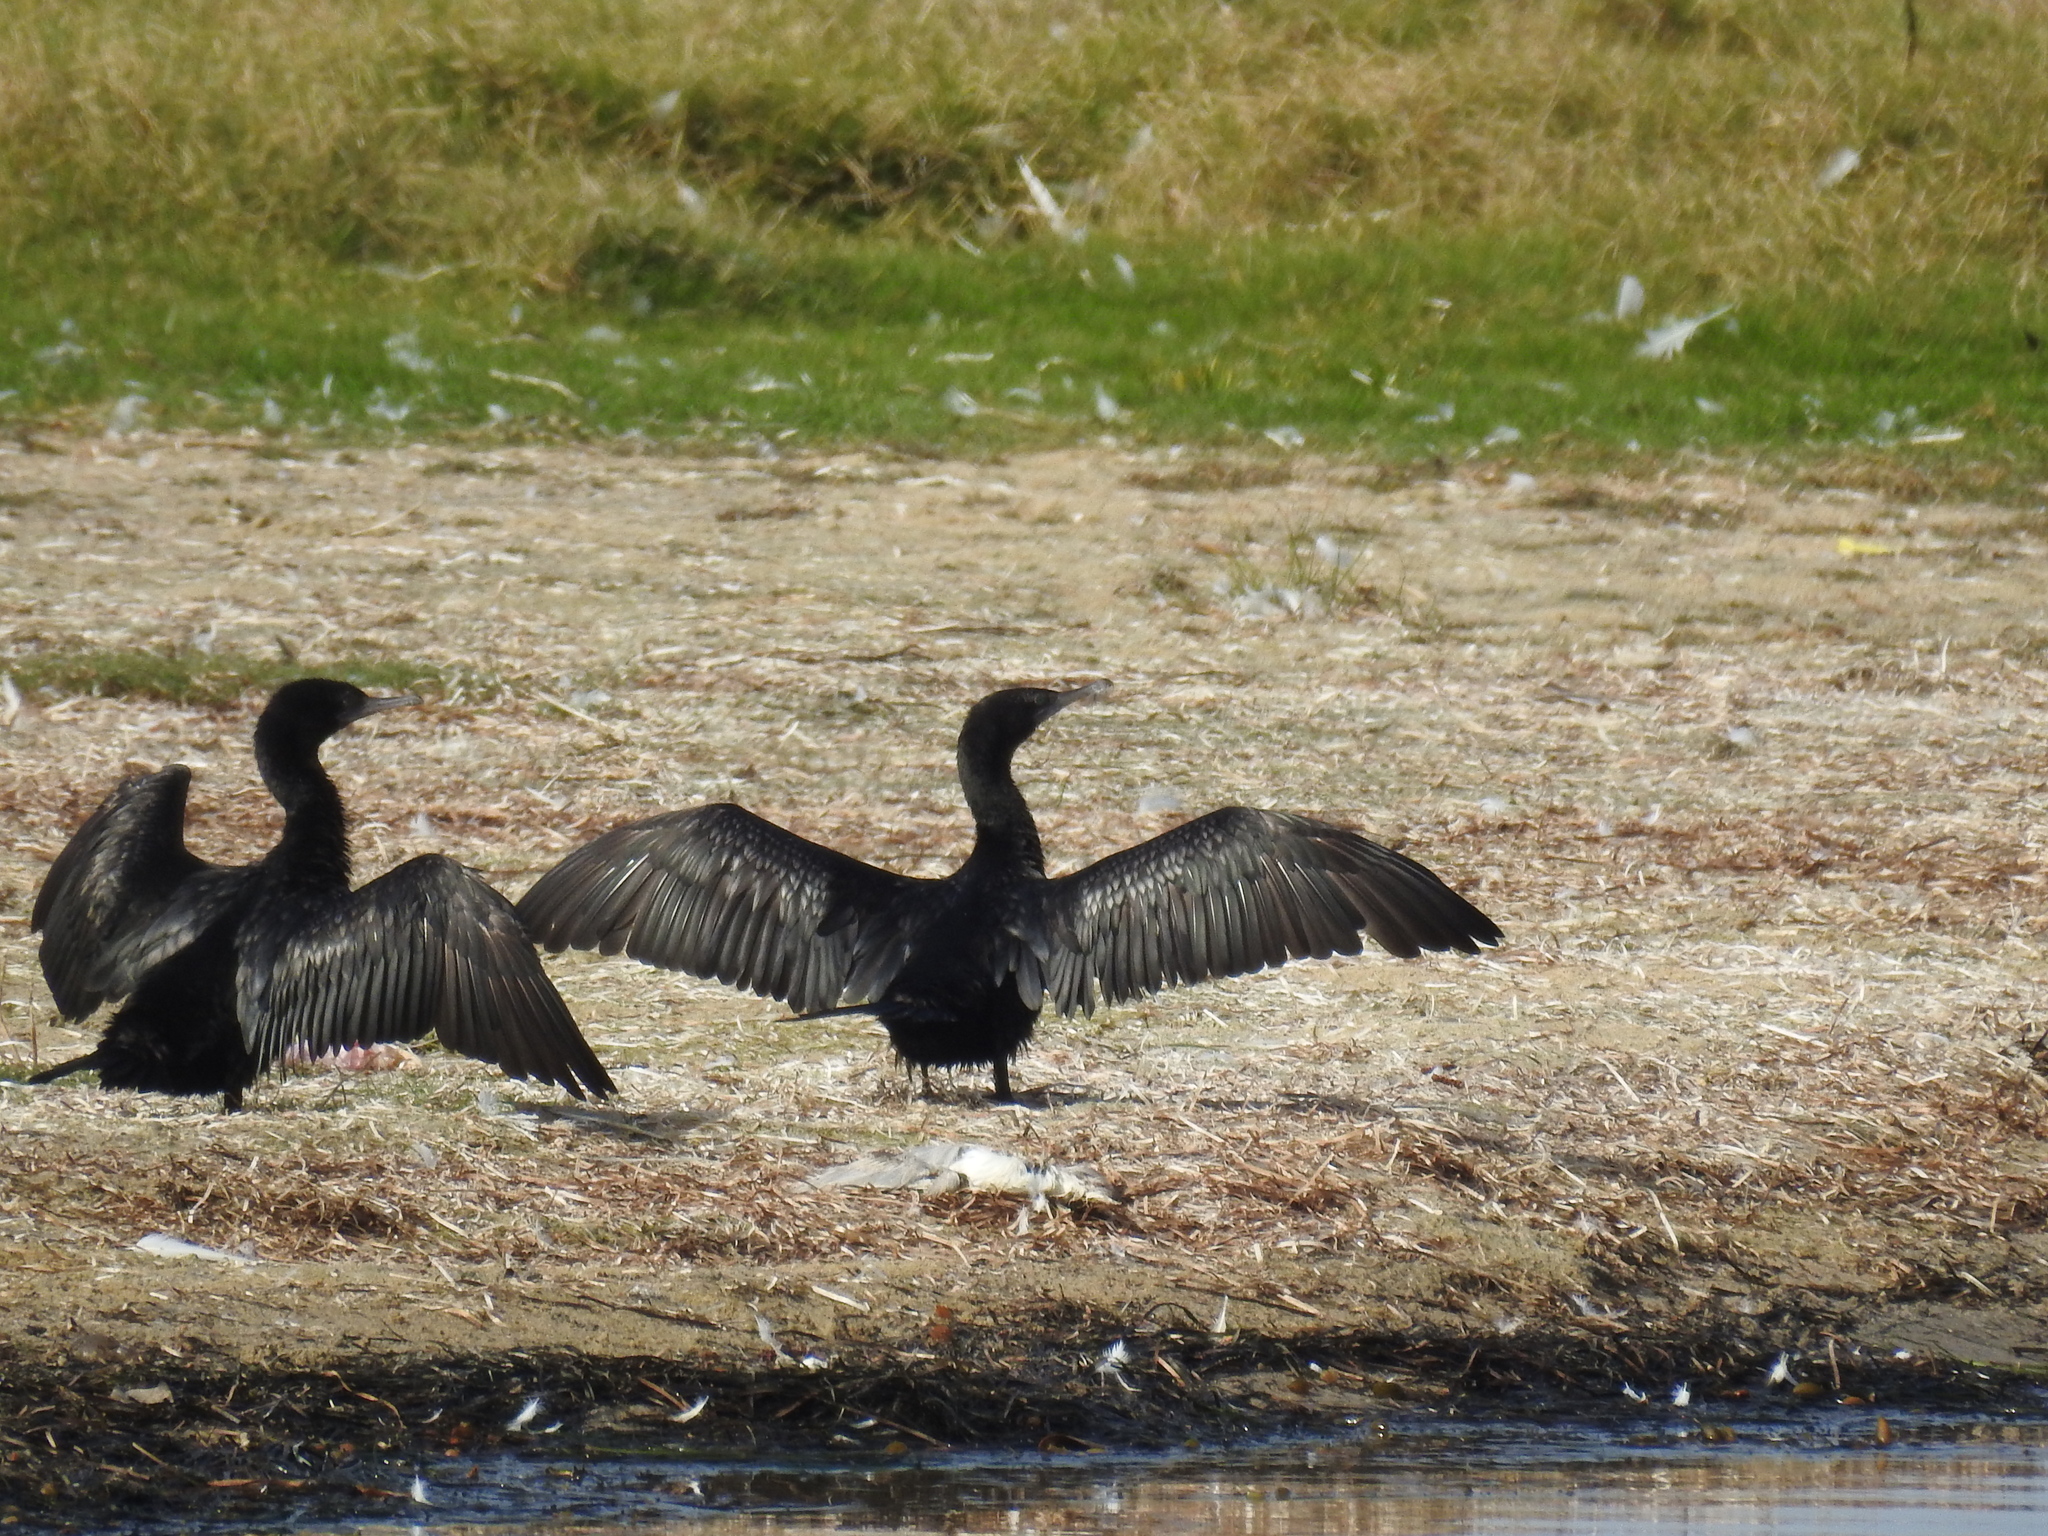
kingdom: Animalia
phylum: Chordata
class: Aves
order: Suliformes
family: Phalacrocoracidae
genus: Phalacrocorax
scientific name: Phalacrocorax sulcirostris
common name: Little black cormorant
